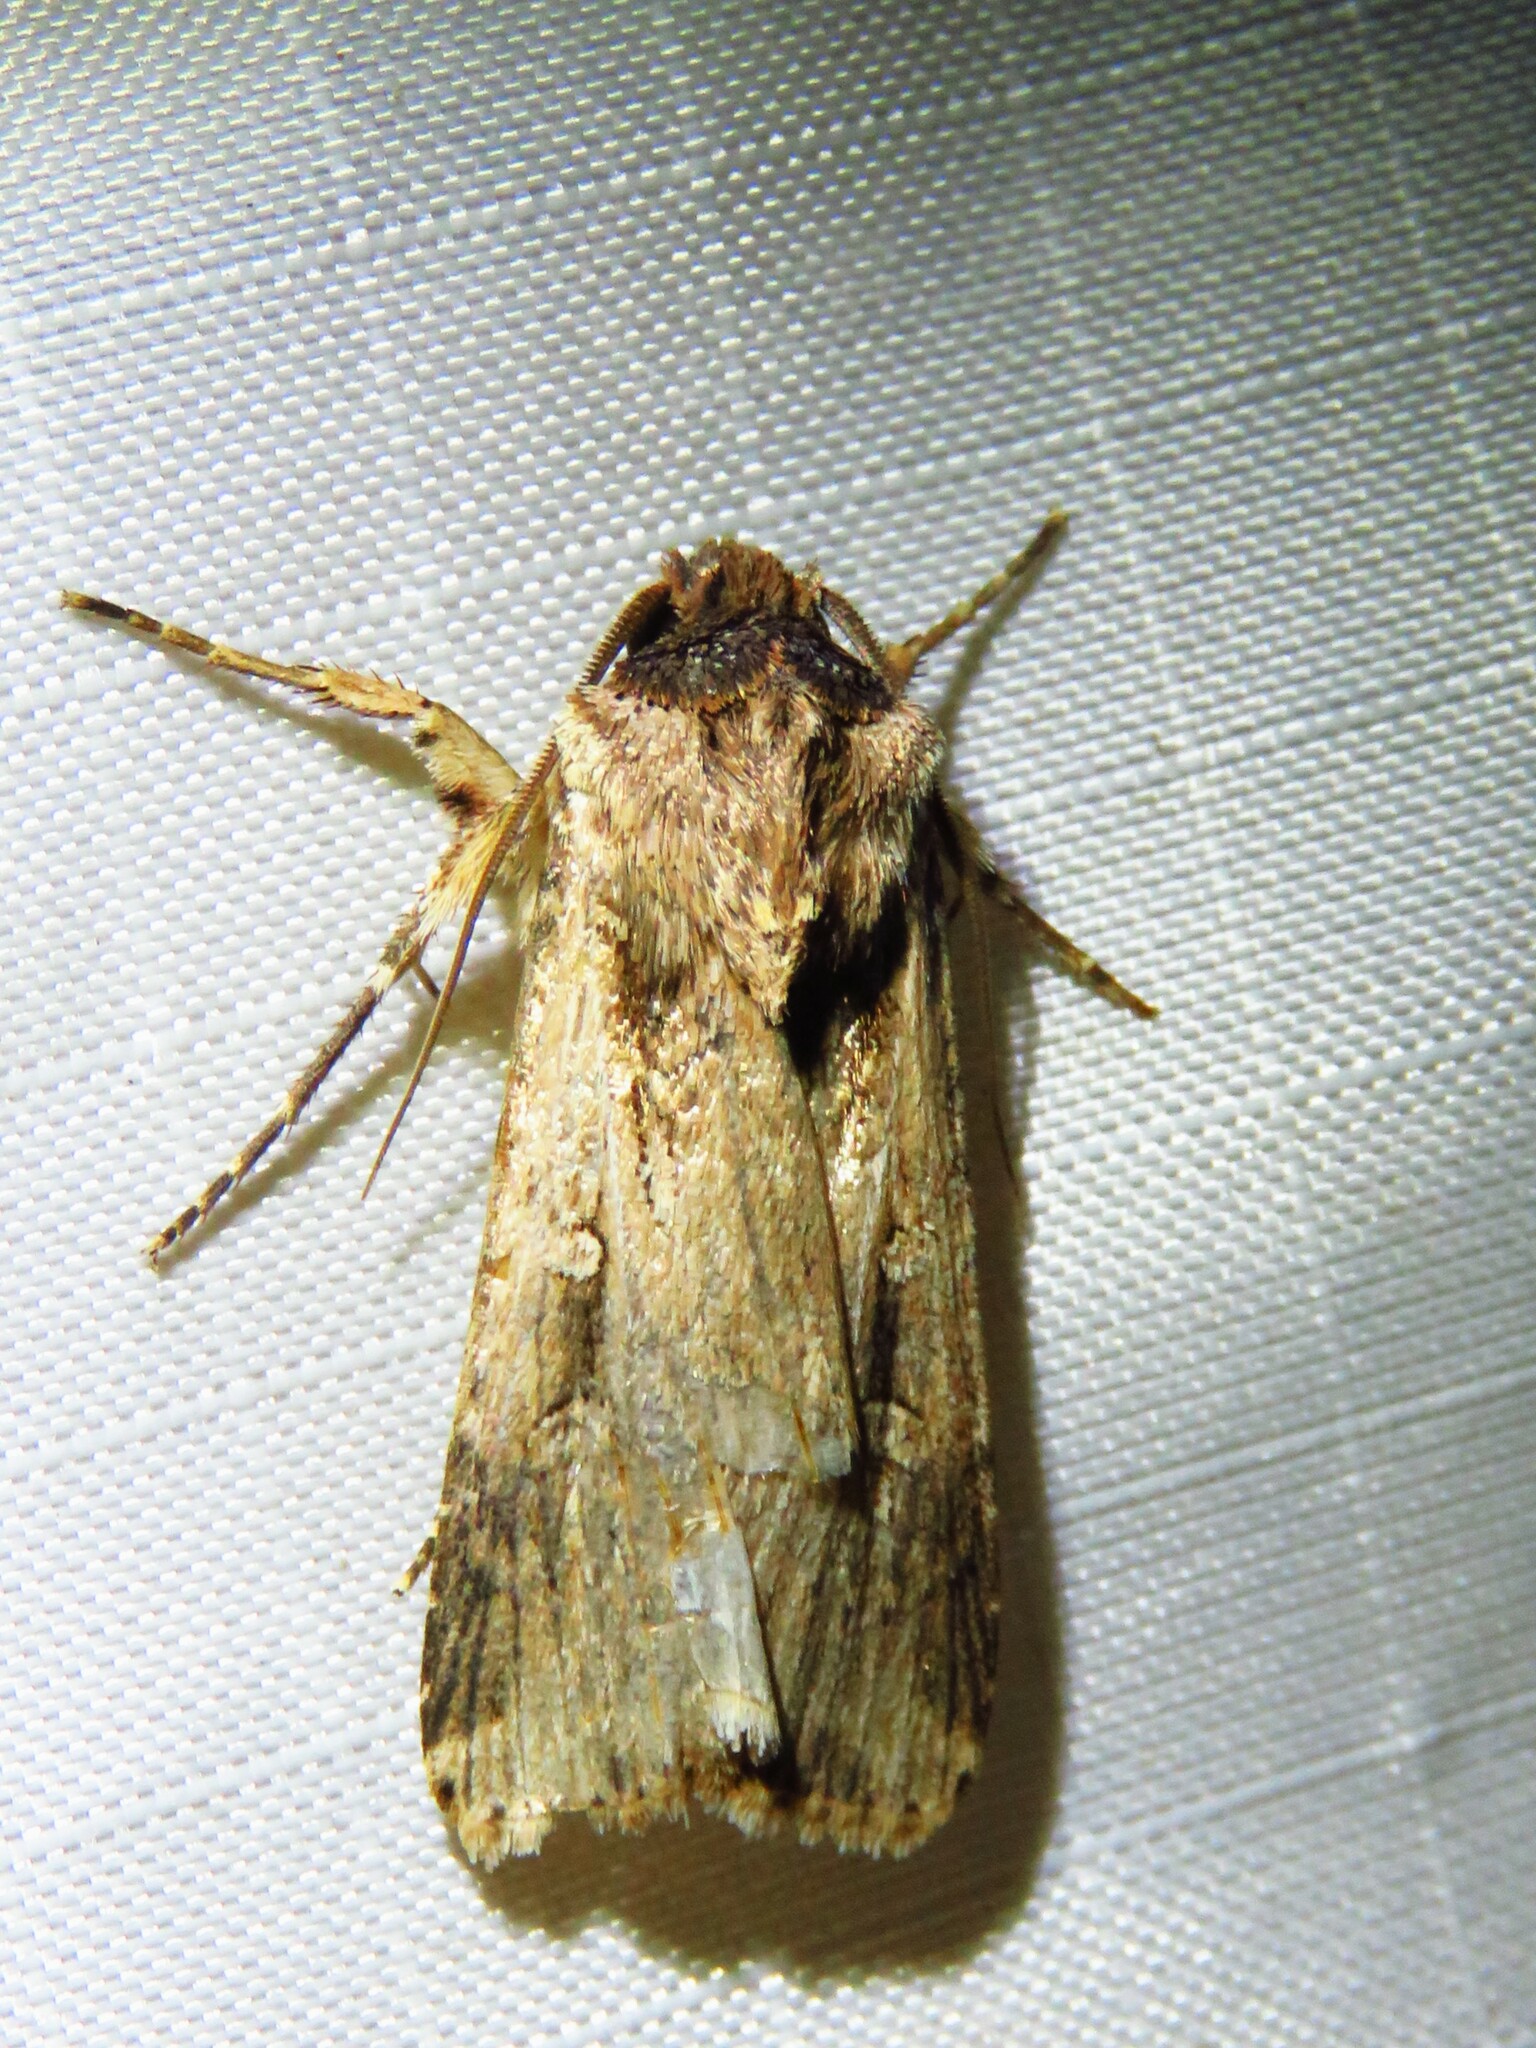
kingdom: Animalia
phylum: Arthropoda
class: Insecta
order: Lepidoptera
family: Noctuidae
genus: Feltia
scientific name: Feltia subterranea
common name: Granulate cutworm
